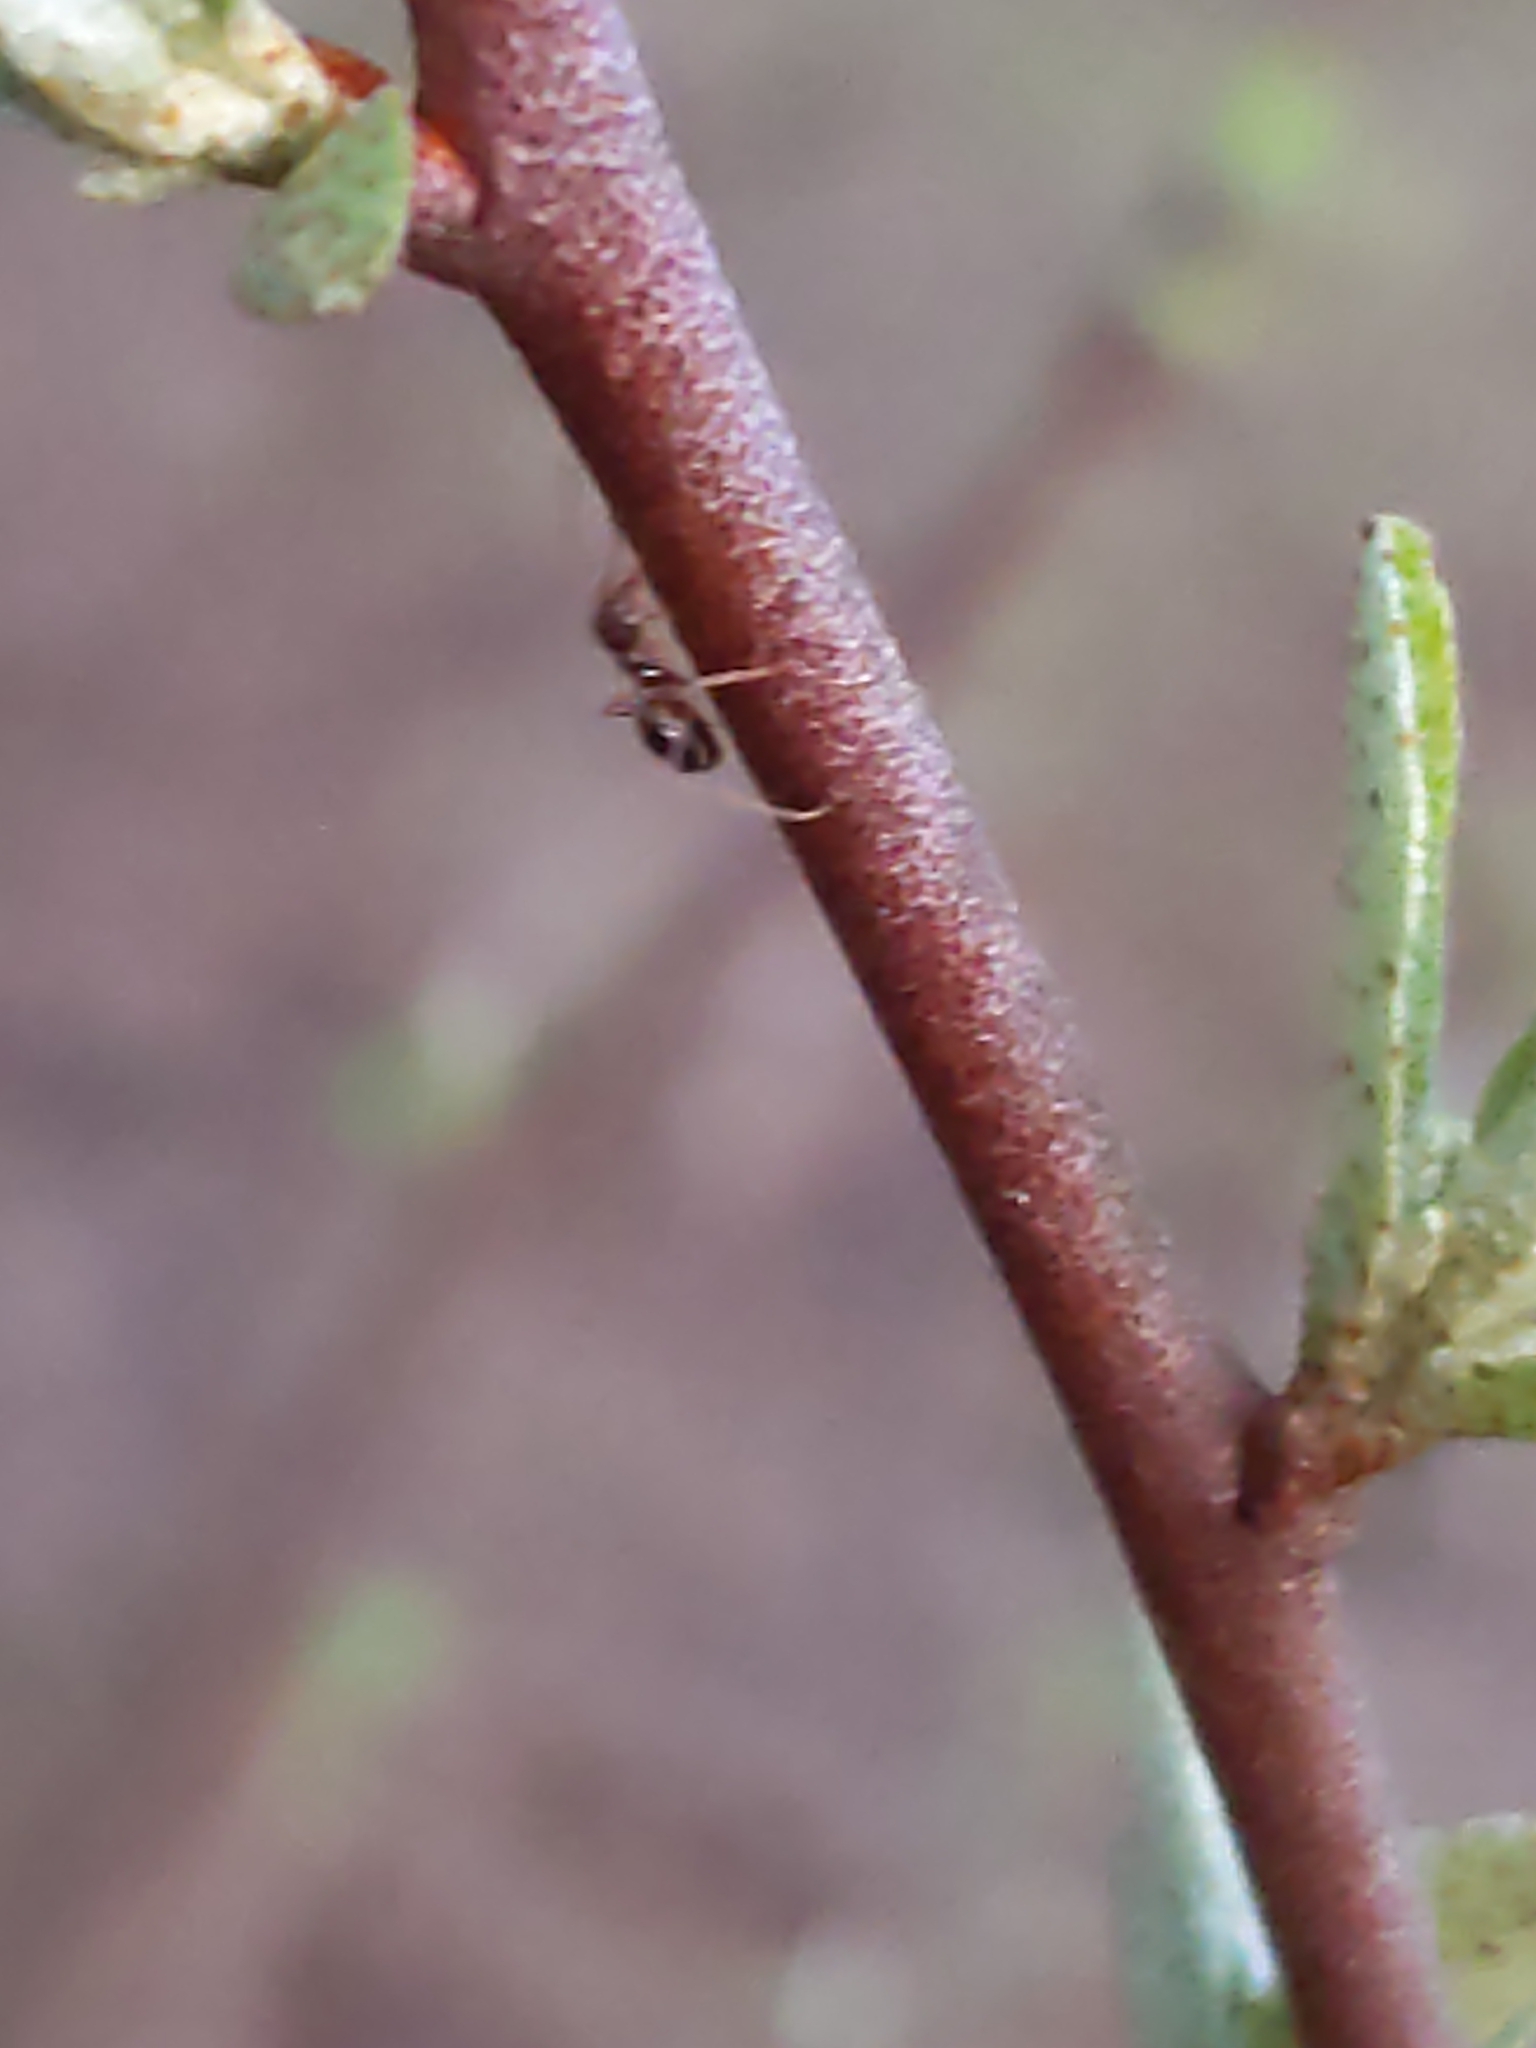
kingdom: Animalia
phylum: Arthropoda
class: Insecta
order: Hymenoptera
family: Formicidae
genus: Prenolepis
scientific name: Prenolepis imparis
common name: Small honey ant
